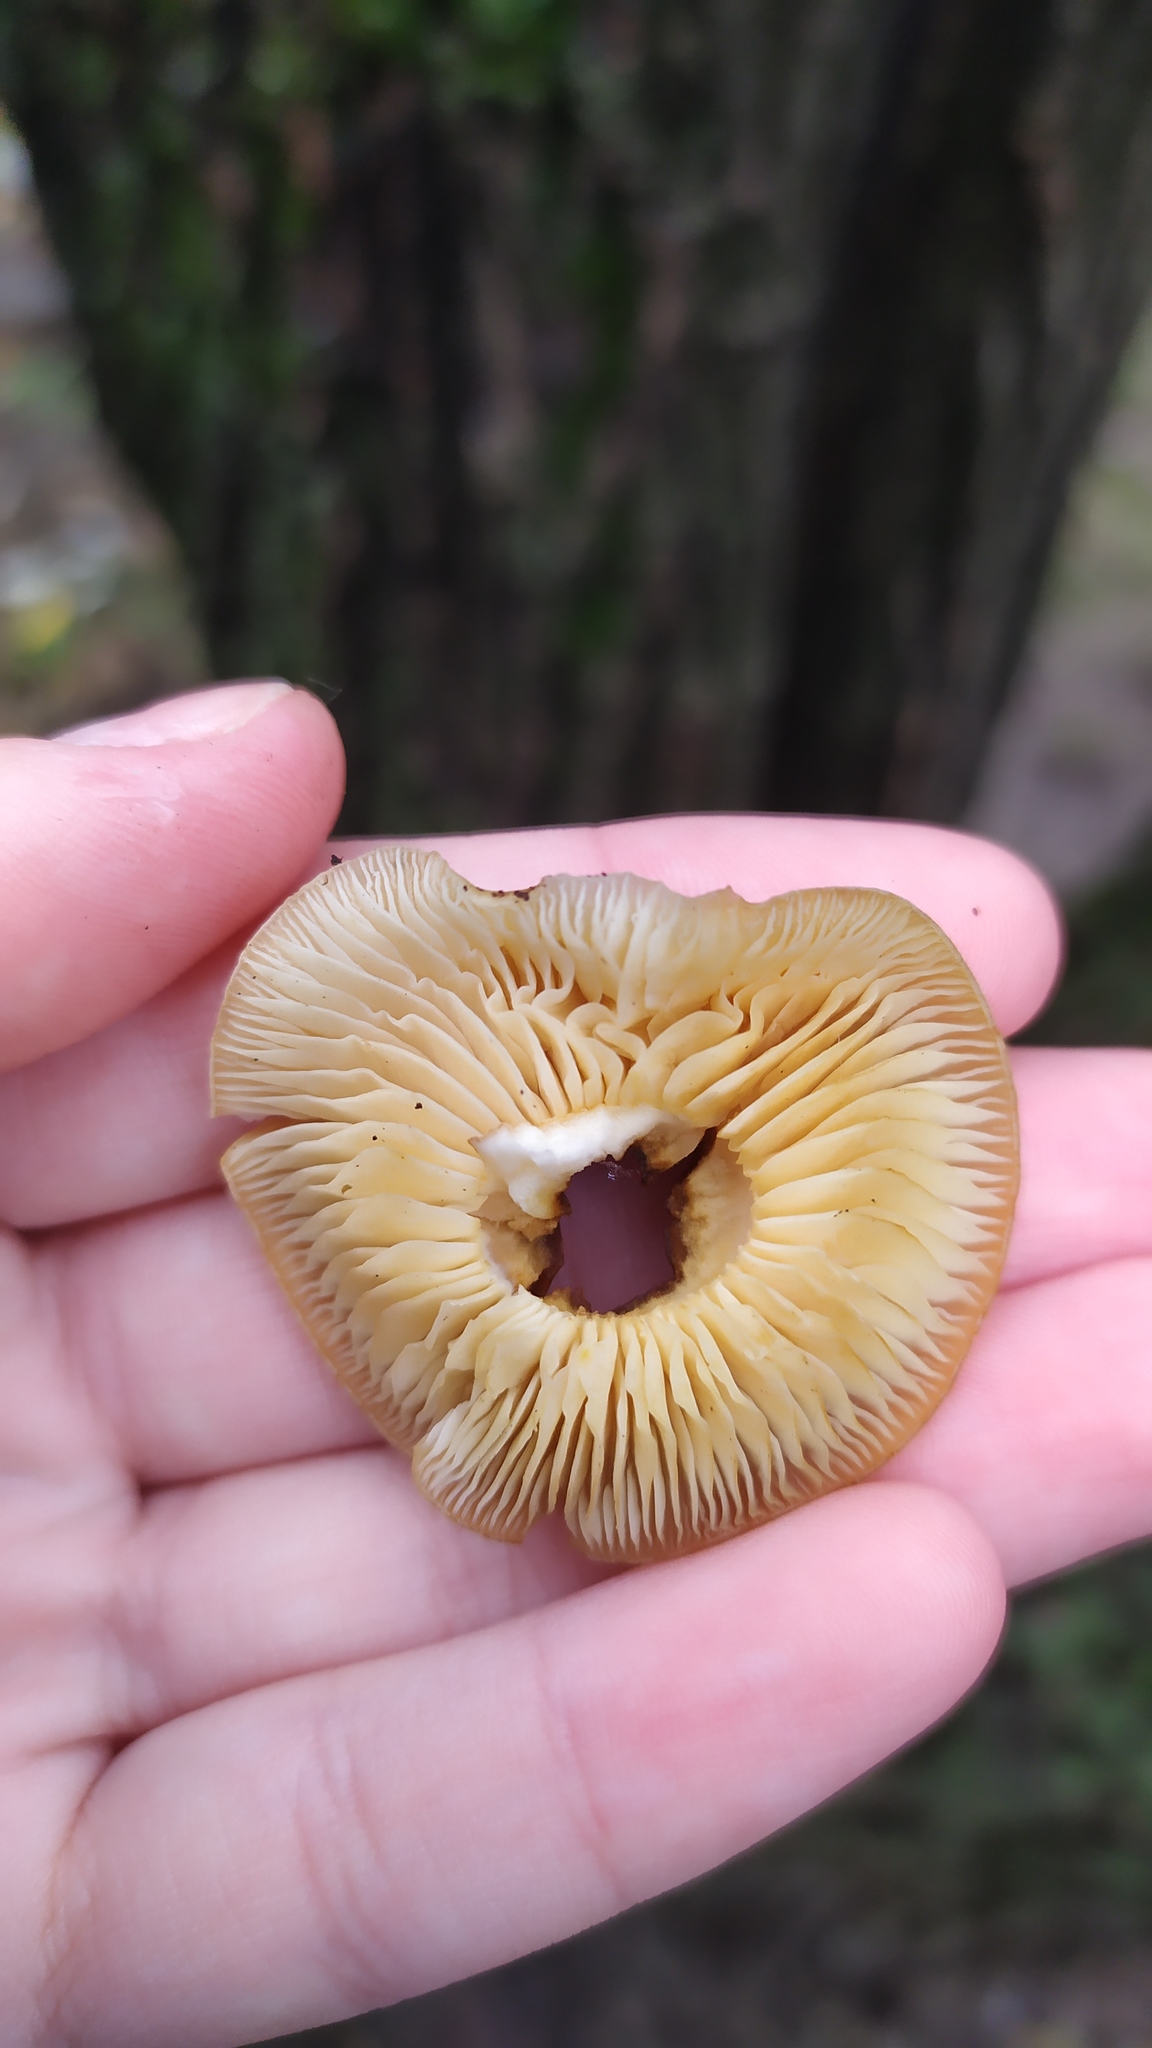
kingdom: Fungi
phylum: Basidiomycota
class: Agaricomycetes
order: Agaricales
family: Physalacriaceae
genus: Flammulina
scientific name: Flammulina
